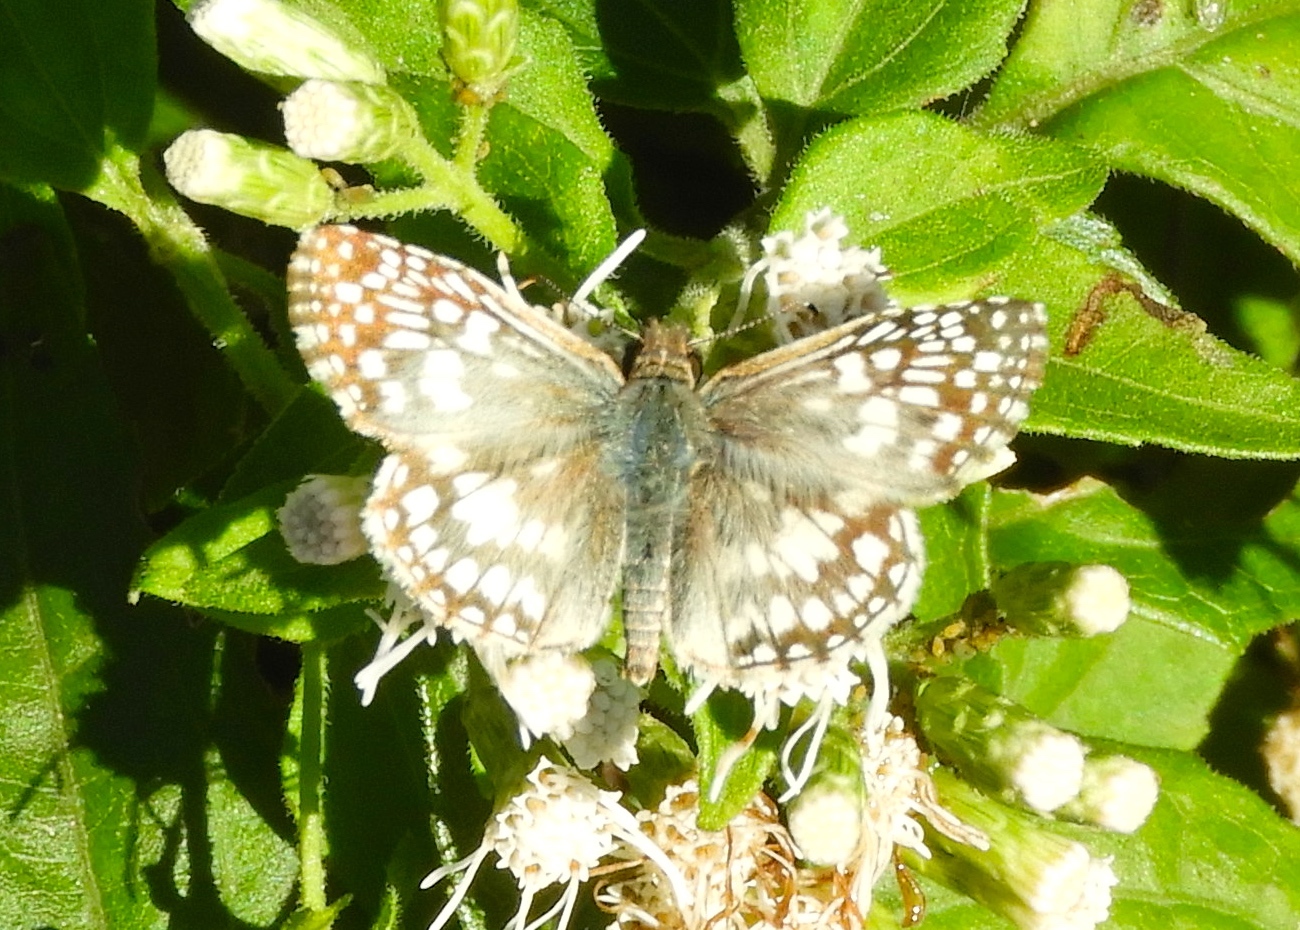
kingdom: Animalia
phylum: Arthropoda
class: Insecta
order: Lepidoptera
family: Hesperiidae
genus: Pyrgus
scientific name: Pyrgus oileus
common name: Tropical checkered-skipper
